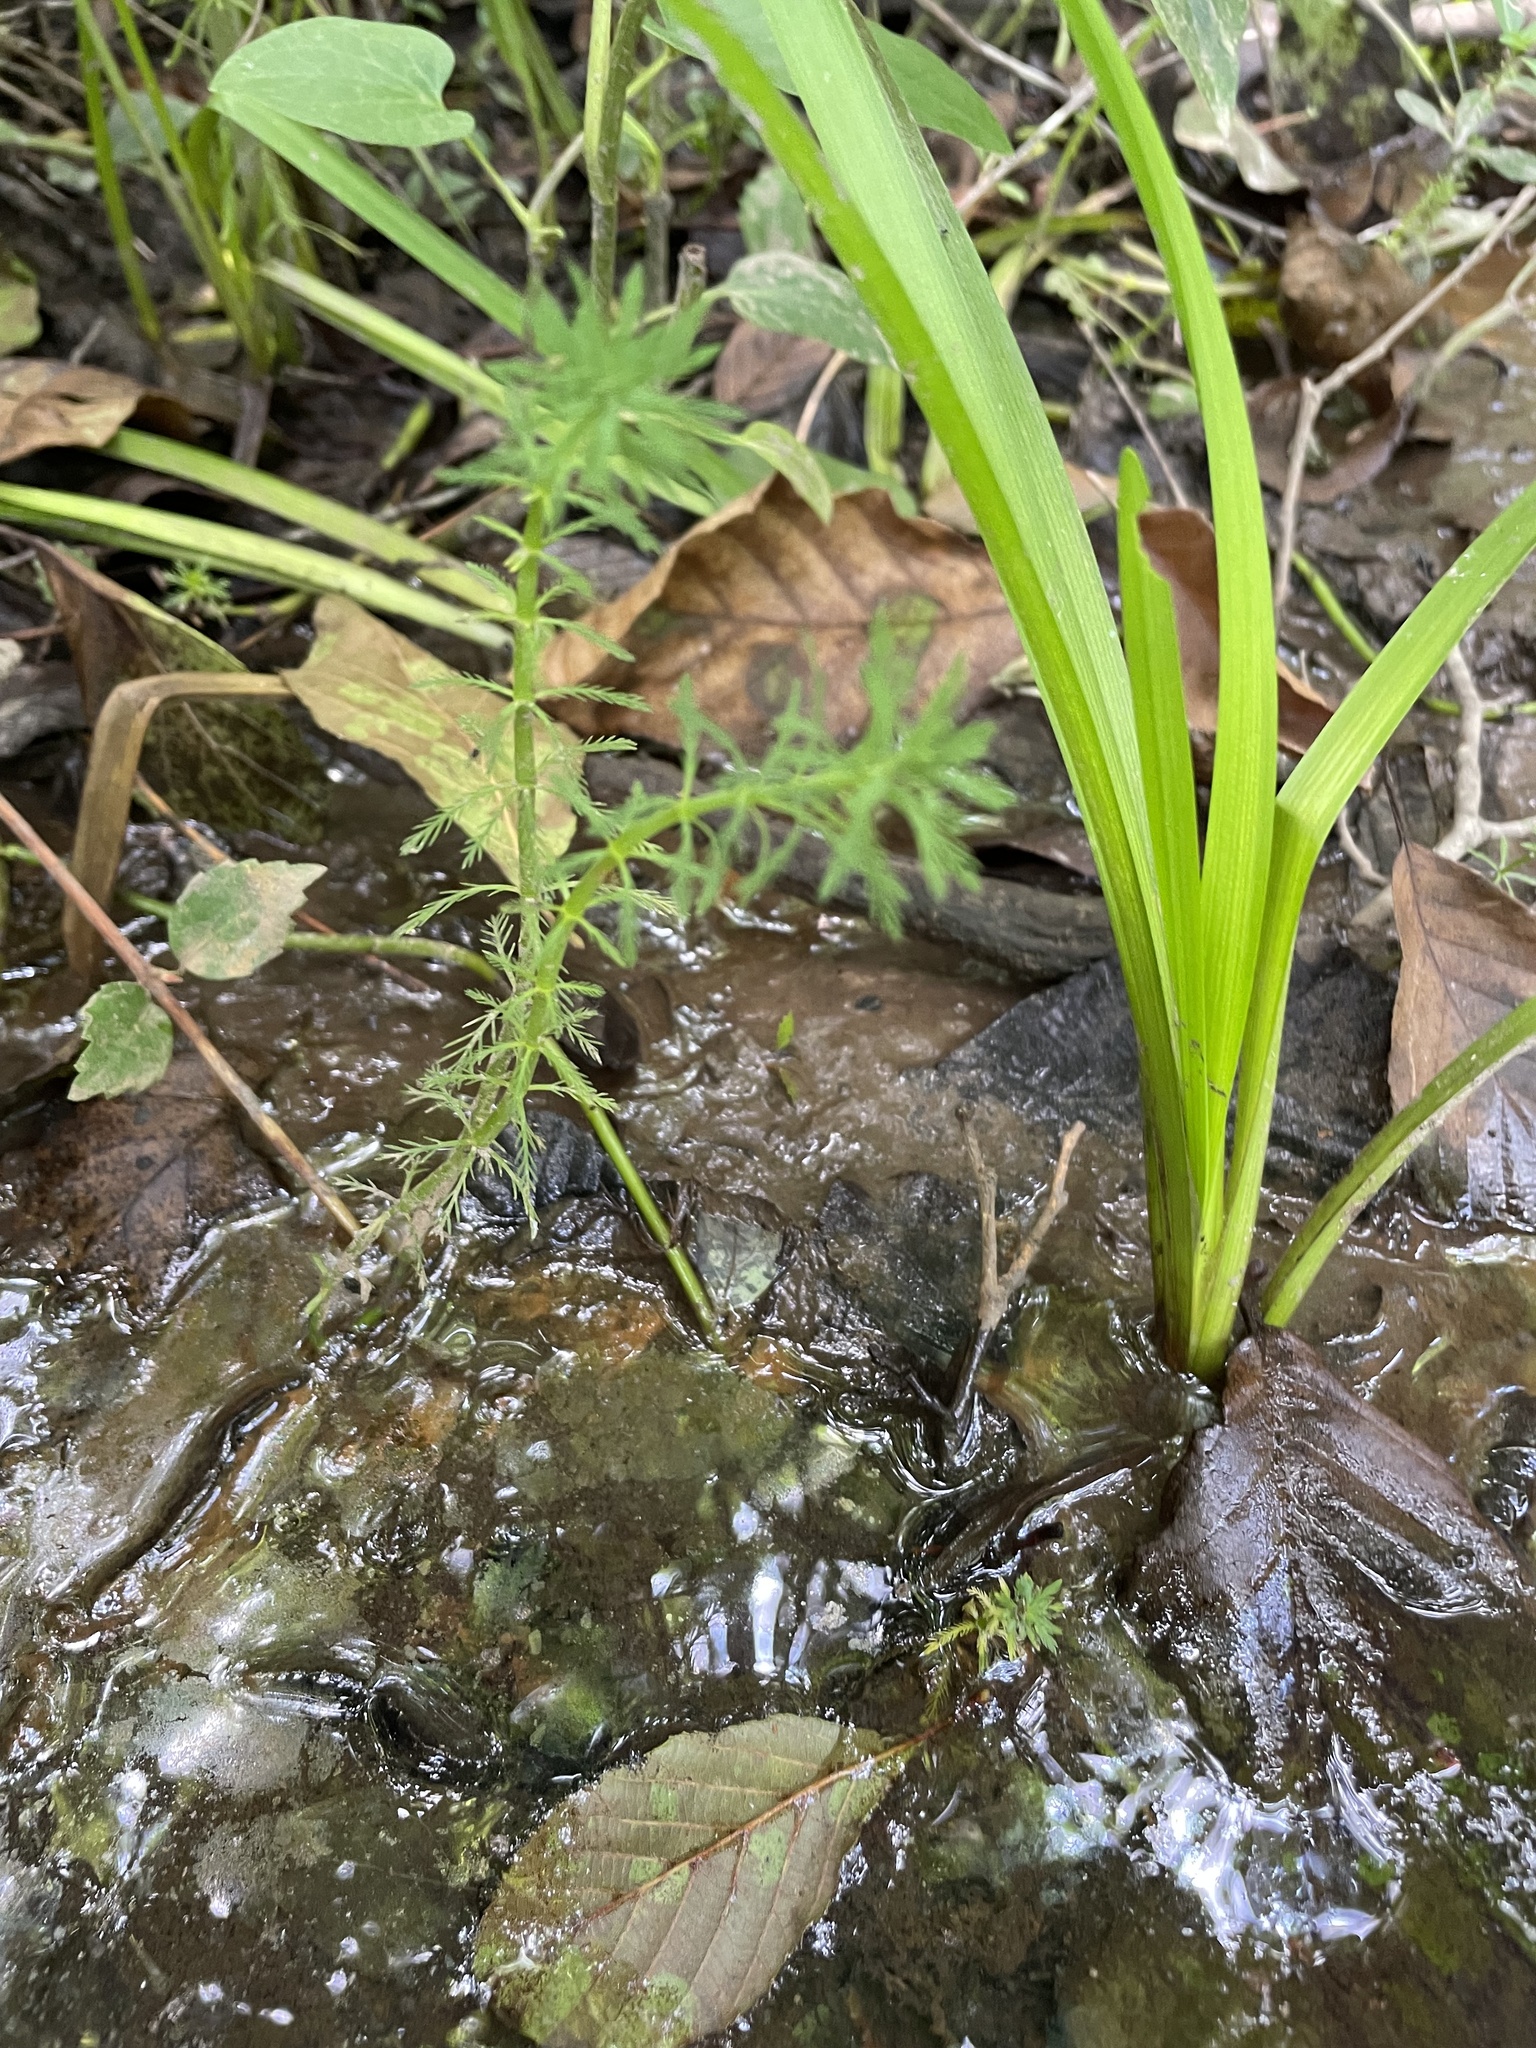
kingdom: Plantae
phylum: Tracheophyta
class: Magnoliopsida
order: Saxifragales
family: Haloragaceae
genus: Myriophyllum
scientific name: Myriophyllum aquaticum
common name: Parrot's feather
